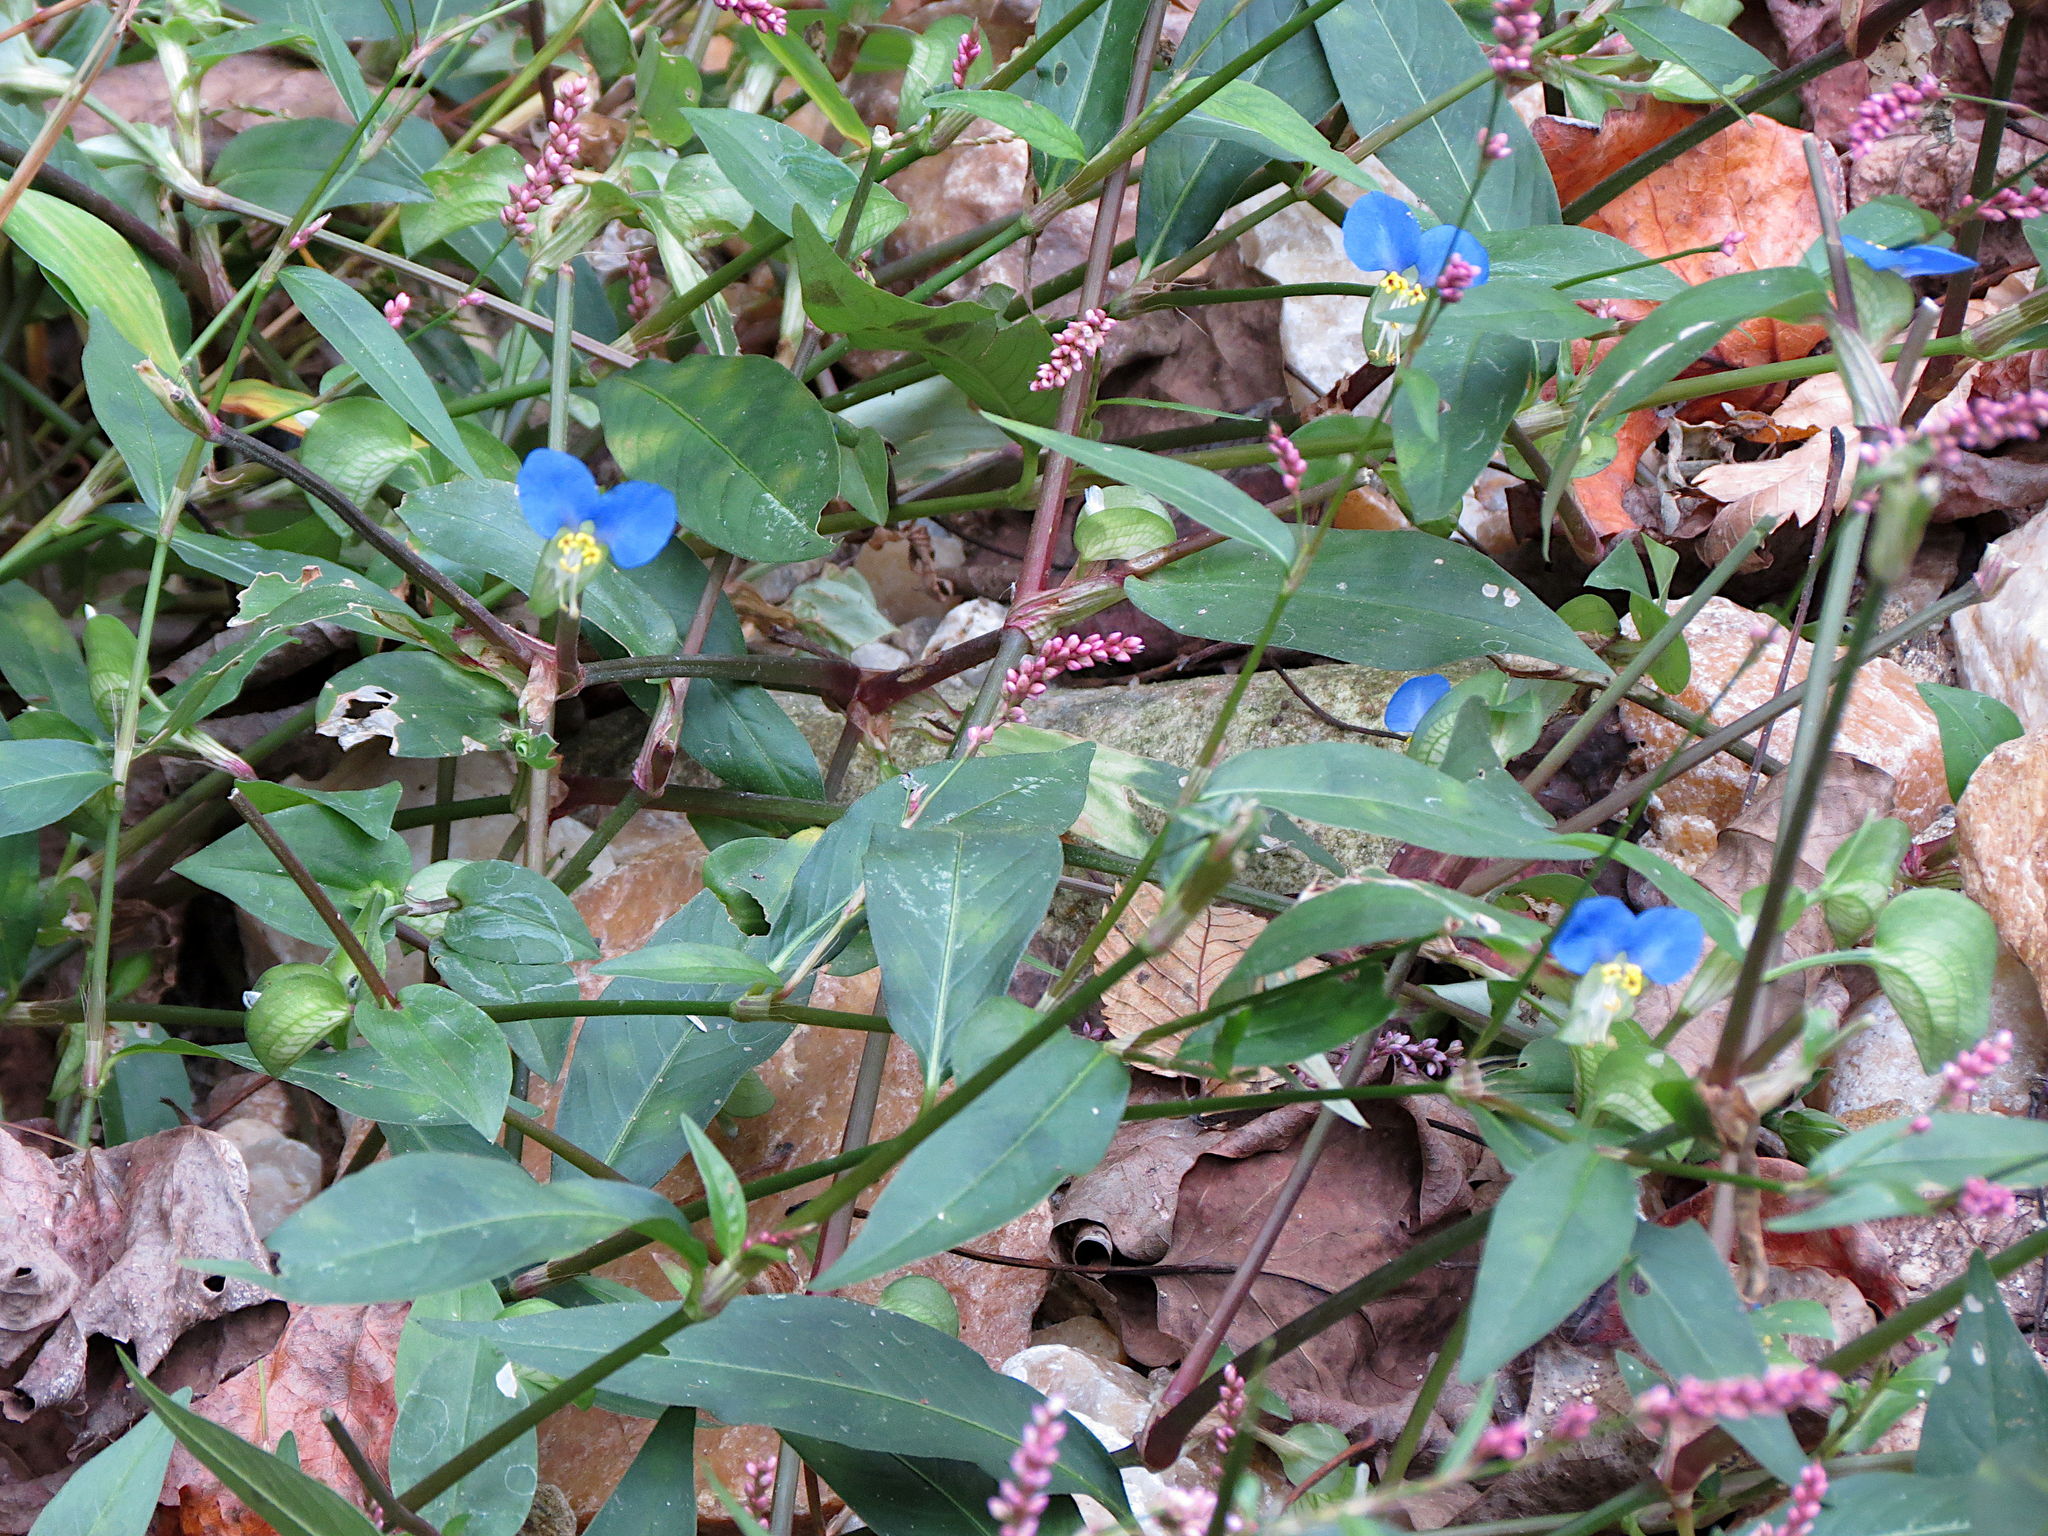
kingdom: Plantae
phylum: Tracheophyta
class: Liliopsida
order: Commelinales
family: Commelinaceae
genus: Commelina
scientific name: Commelina communis
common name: Asiatic dayflower
